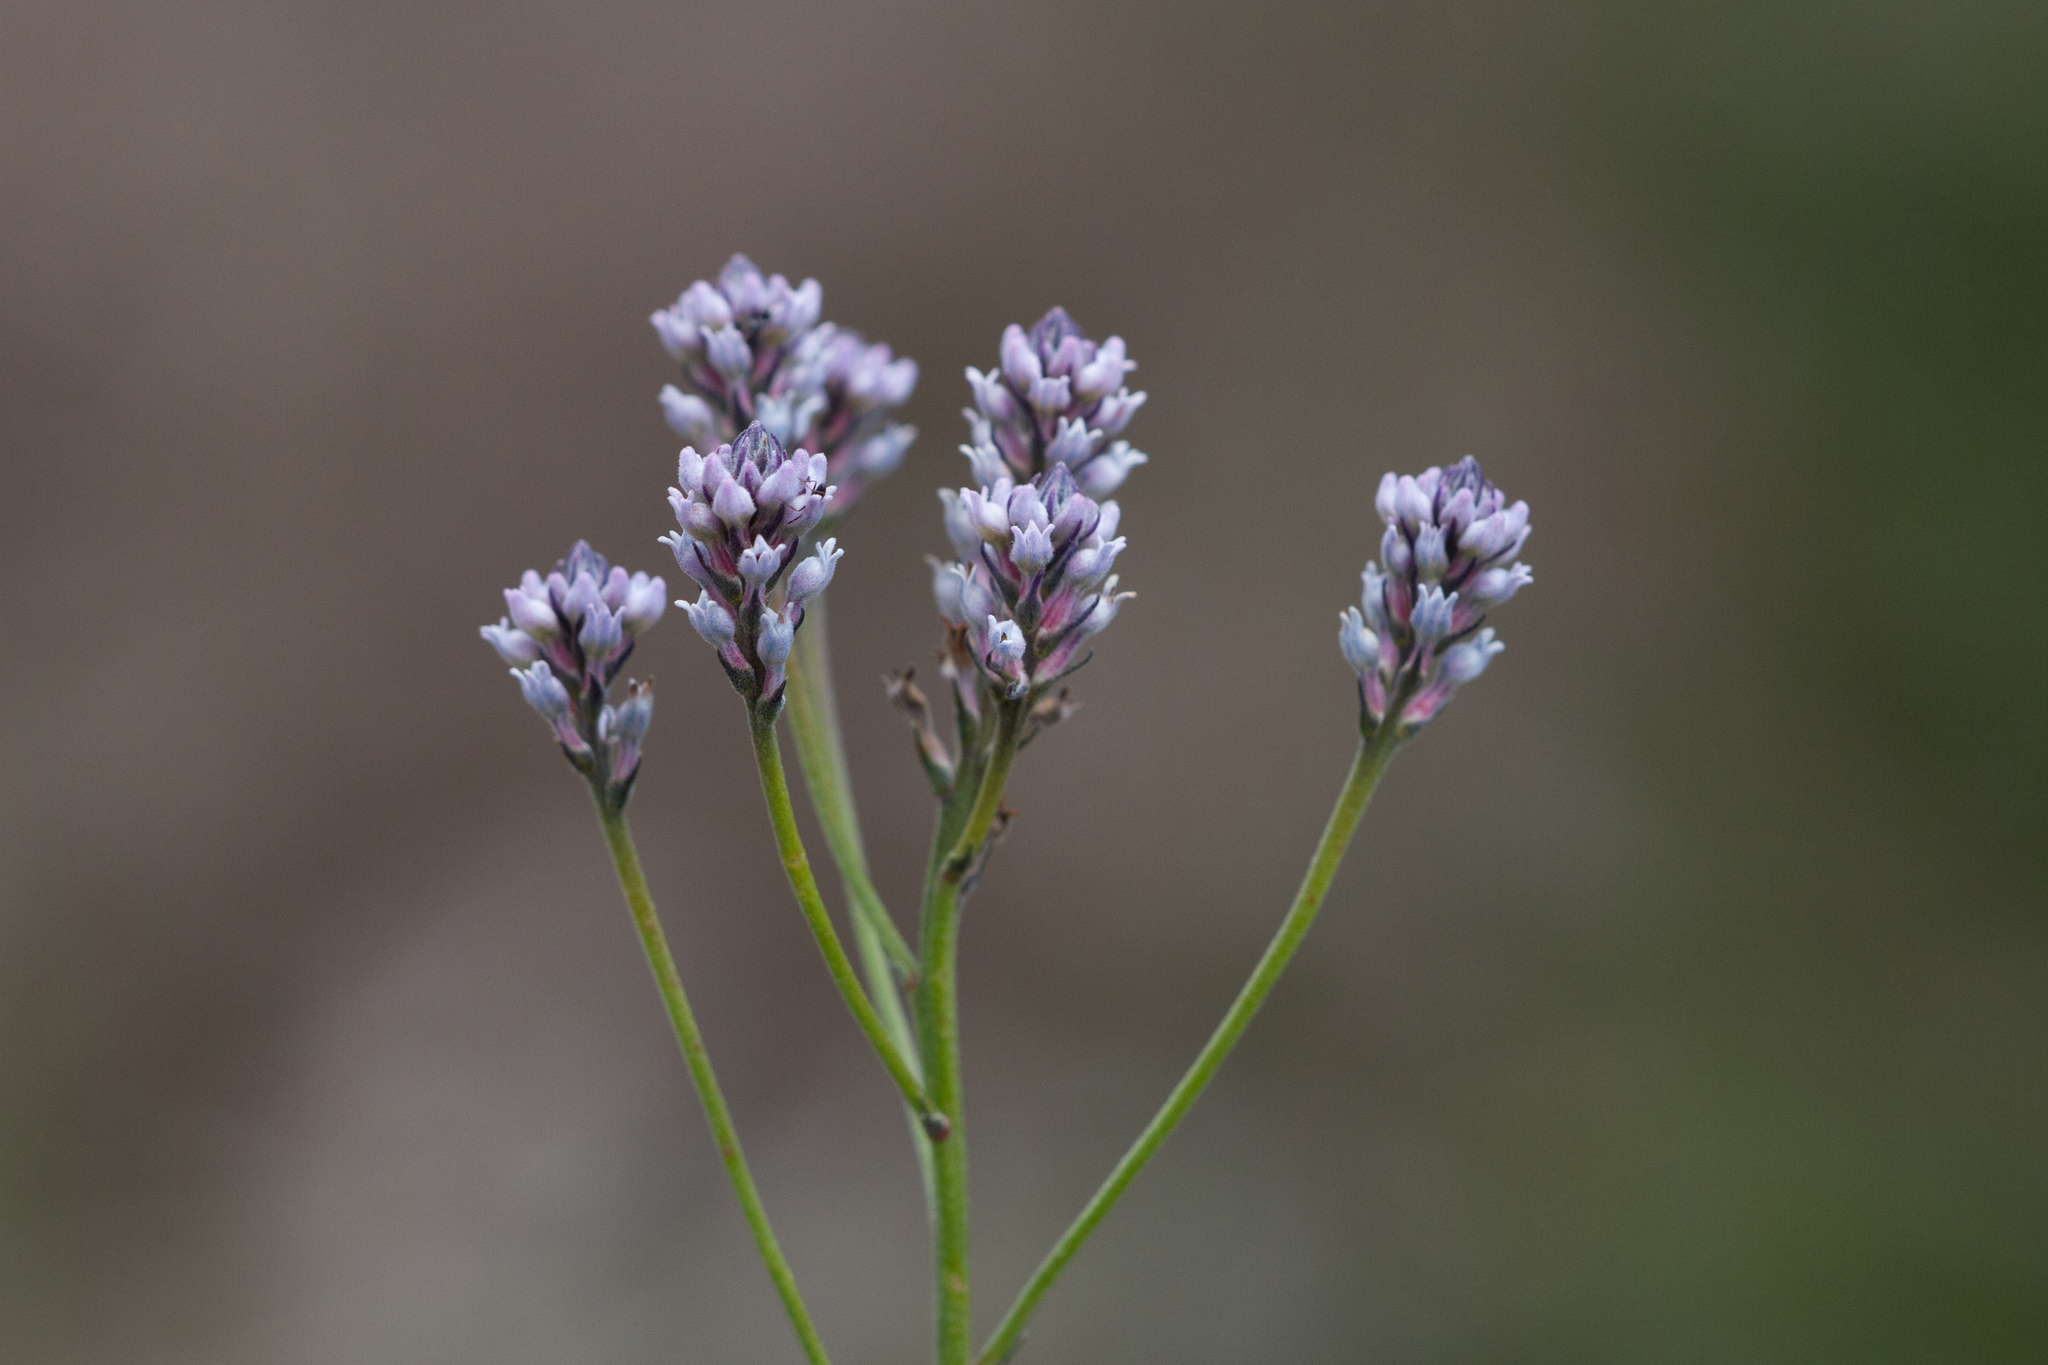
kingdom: Plantae
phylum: Tracheophyta
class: Magnoliopsida
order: Proteales
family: Proteaceae
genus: Conospermum
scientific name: Conospermum patens
